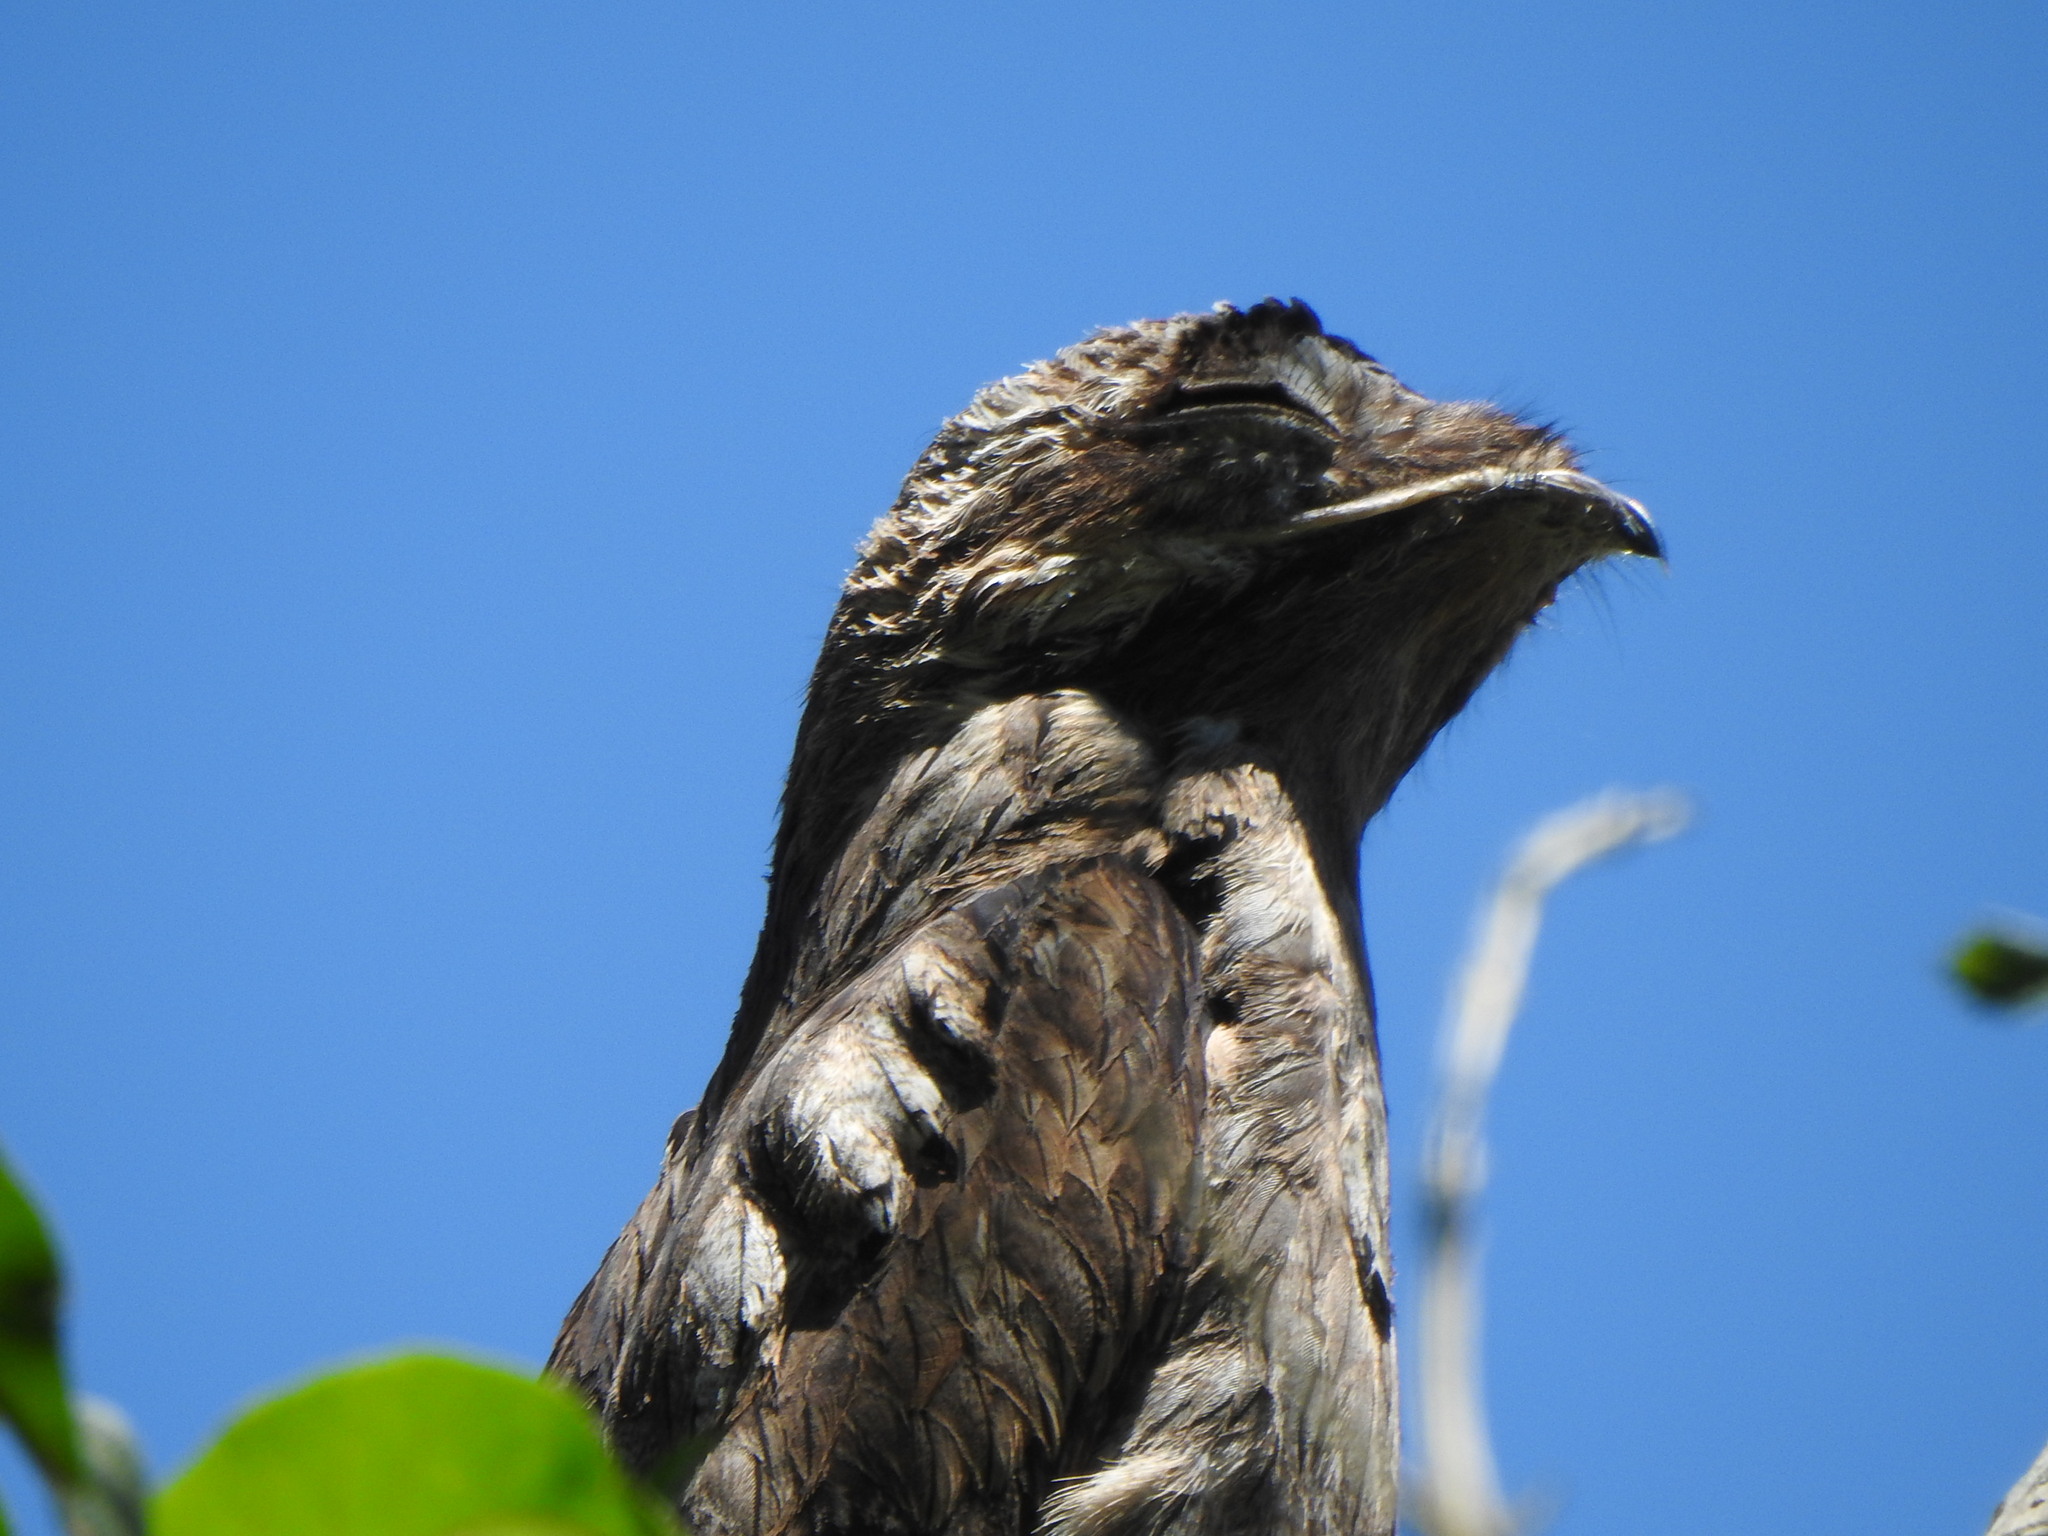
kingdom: Animalia
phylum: Chordata
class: Aves
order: Nyctibiiformes
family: Nyctibiidae
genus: Nyctibius
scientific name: Nyctibius griseus
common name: Common potoo
